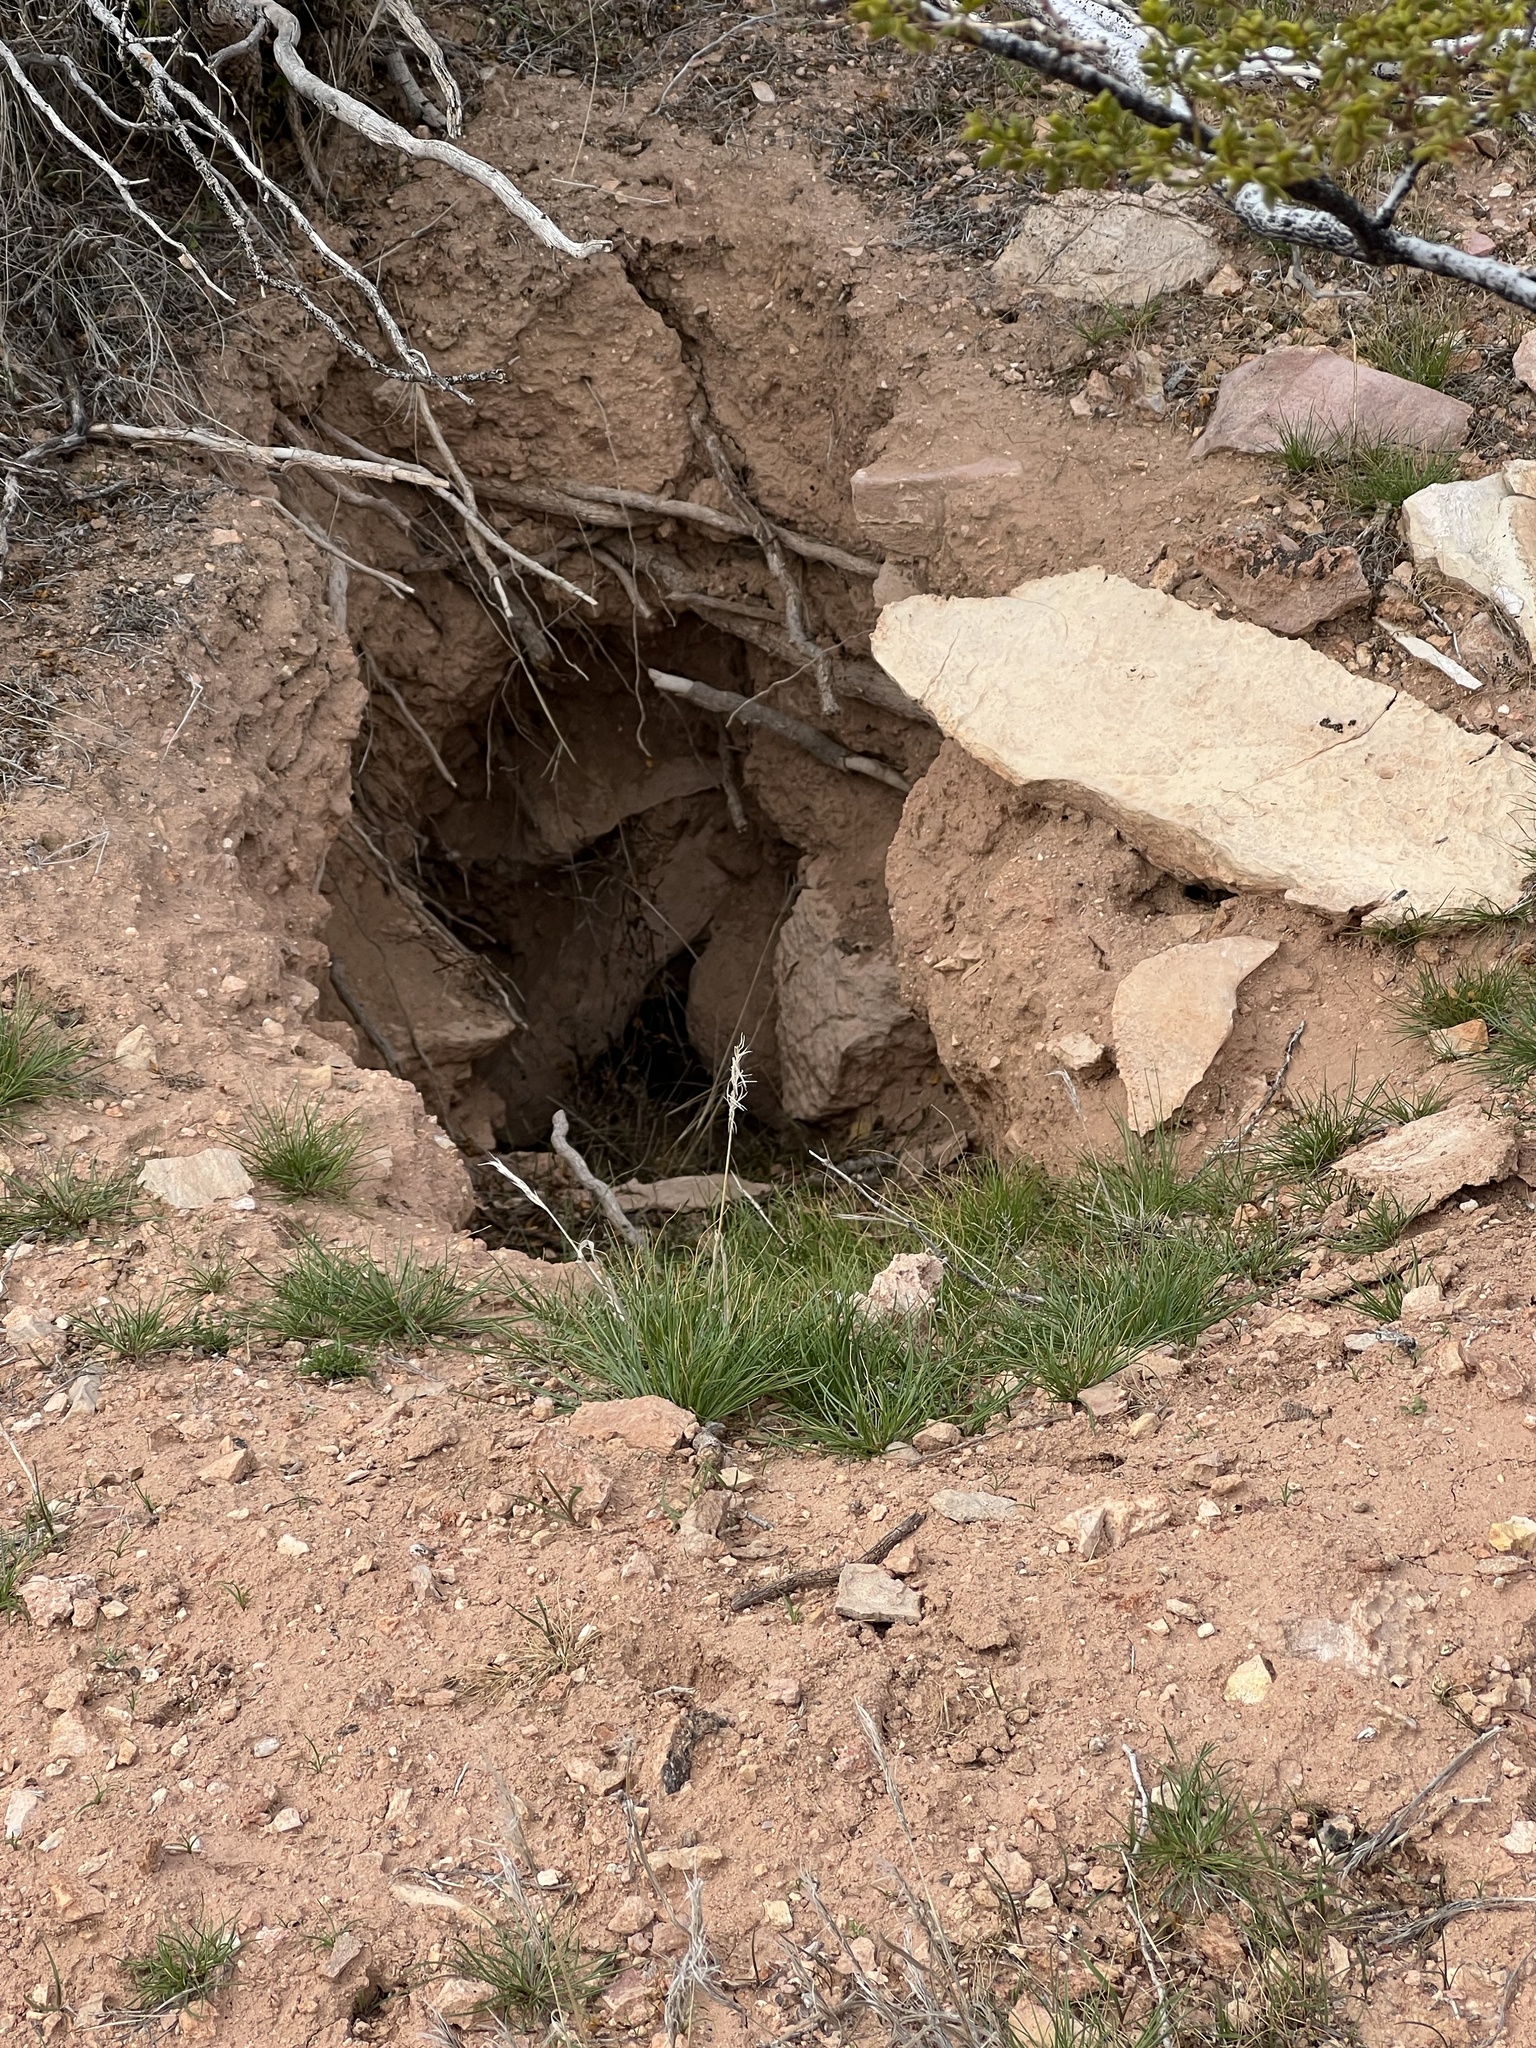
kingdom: Animalia
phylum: Chordata
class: Testudines
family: Testudinidae
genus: Gopherus
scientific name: Gopherus agassizii
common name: Mojave desert tortoise
